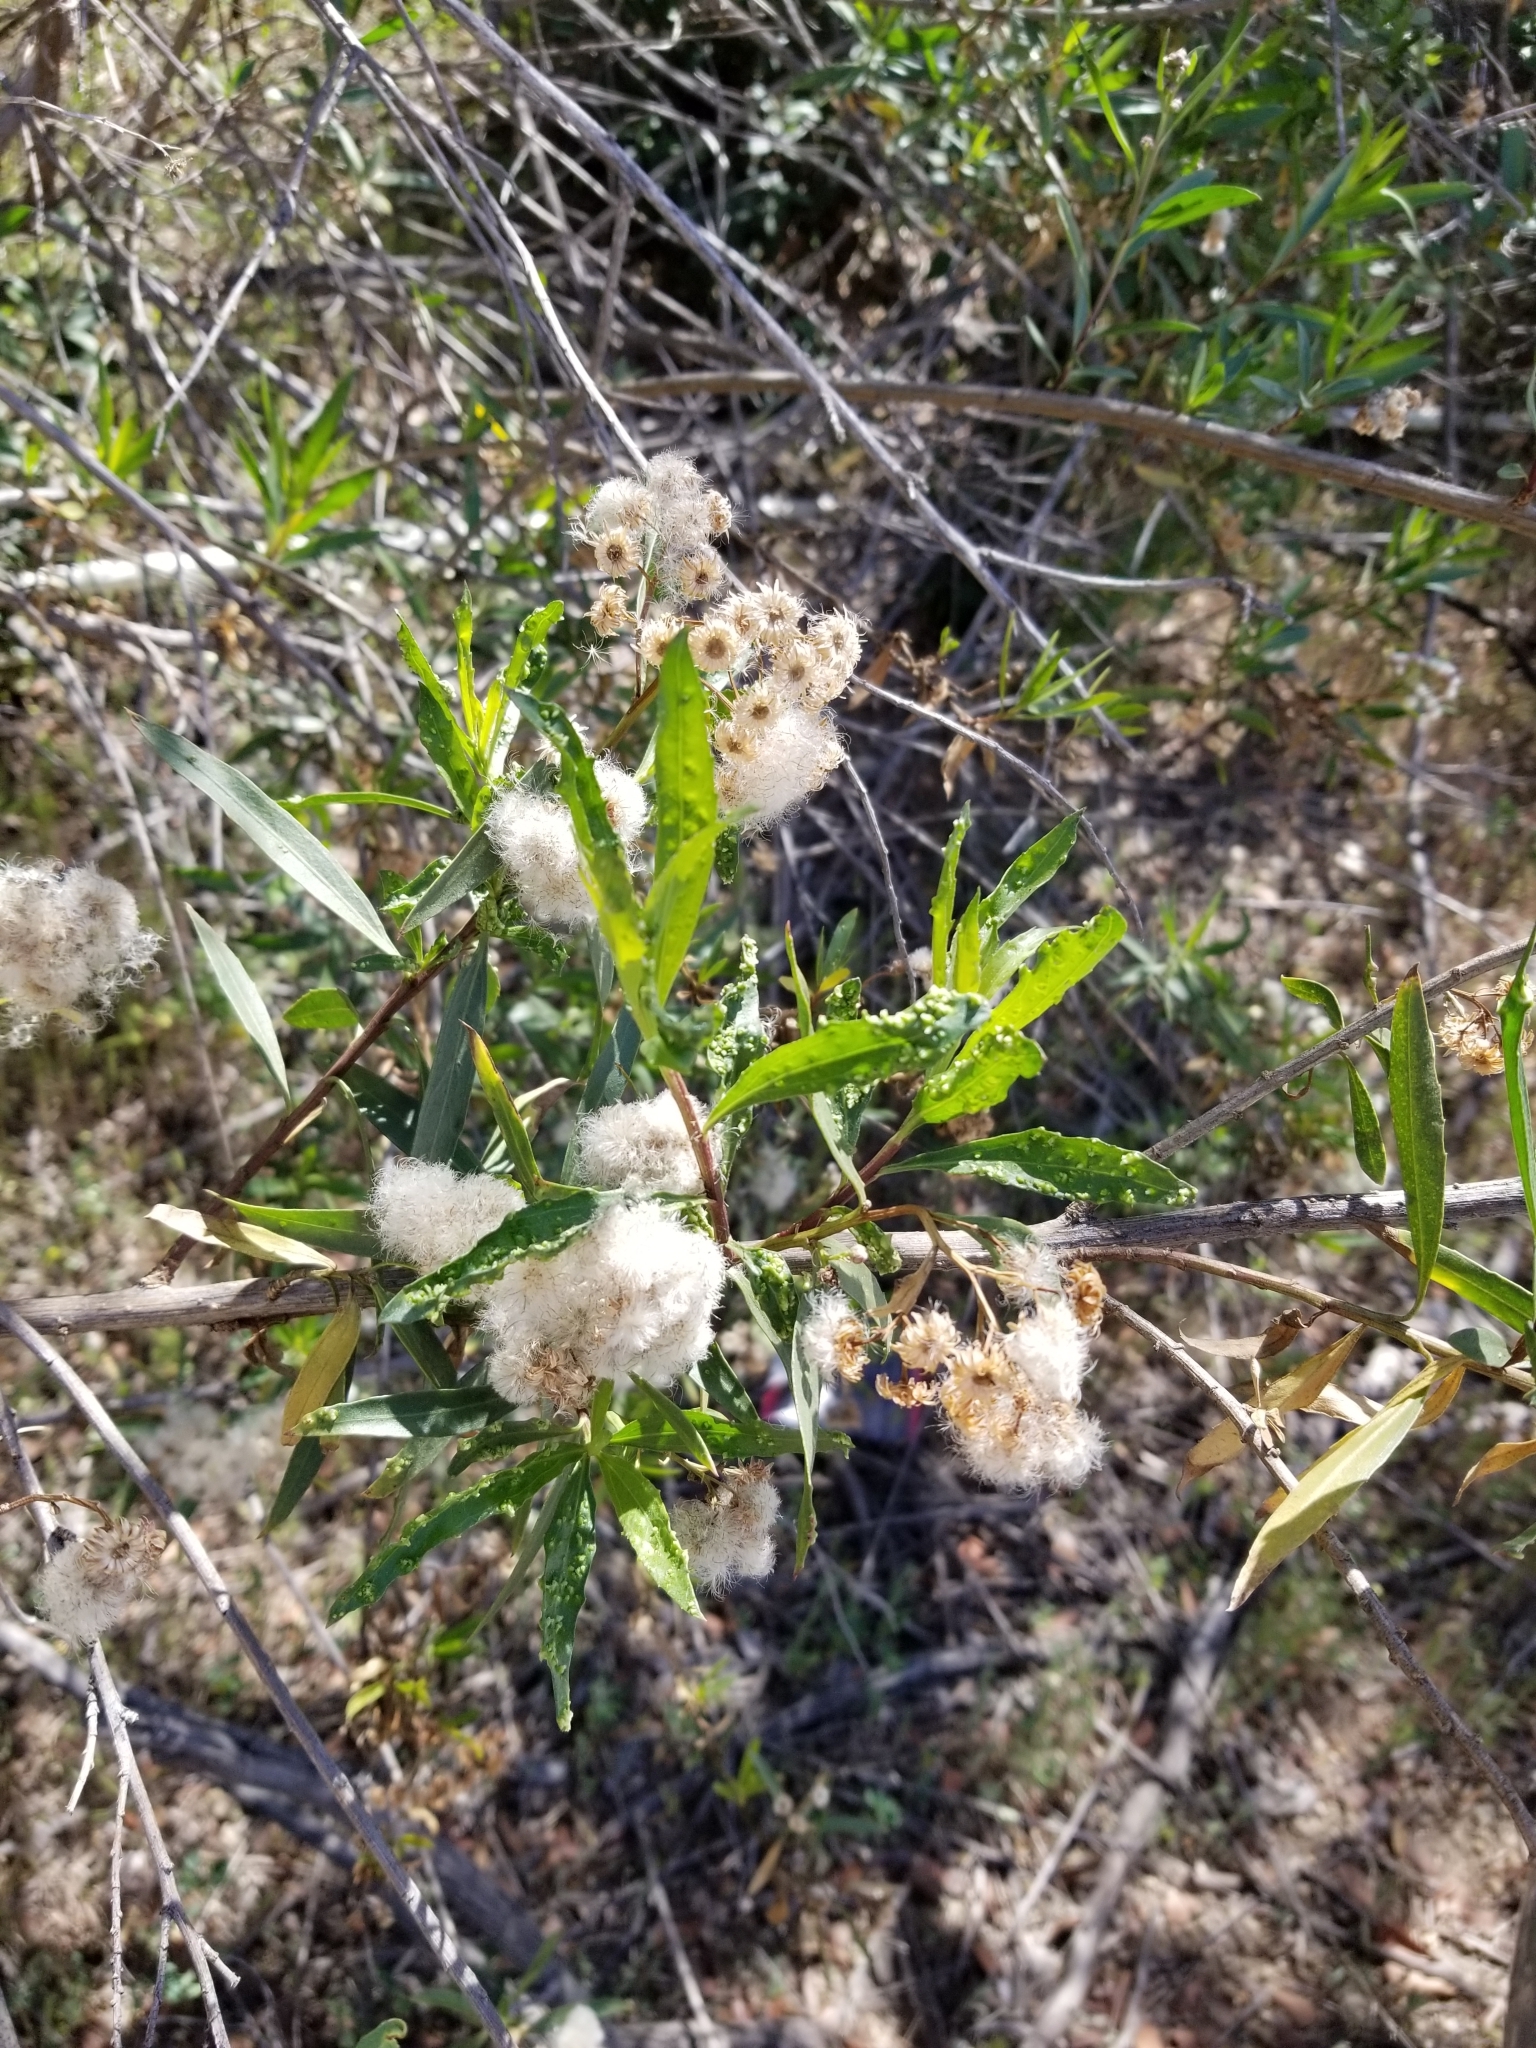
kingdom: Plantae
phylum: Tracheophyta
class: Magnoliopsida
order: Asterales
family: Asteraceae
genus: Baccharis
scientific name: Baccharis salicifolia
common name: Sticky baccharis
